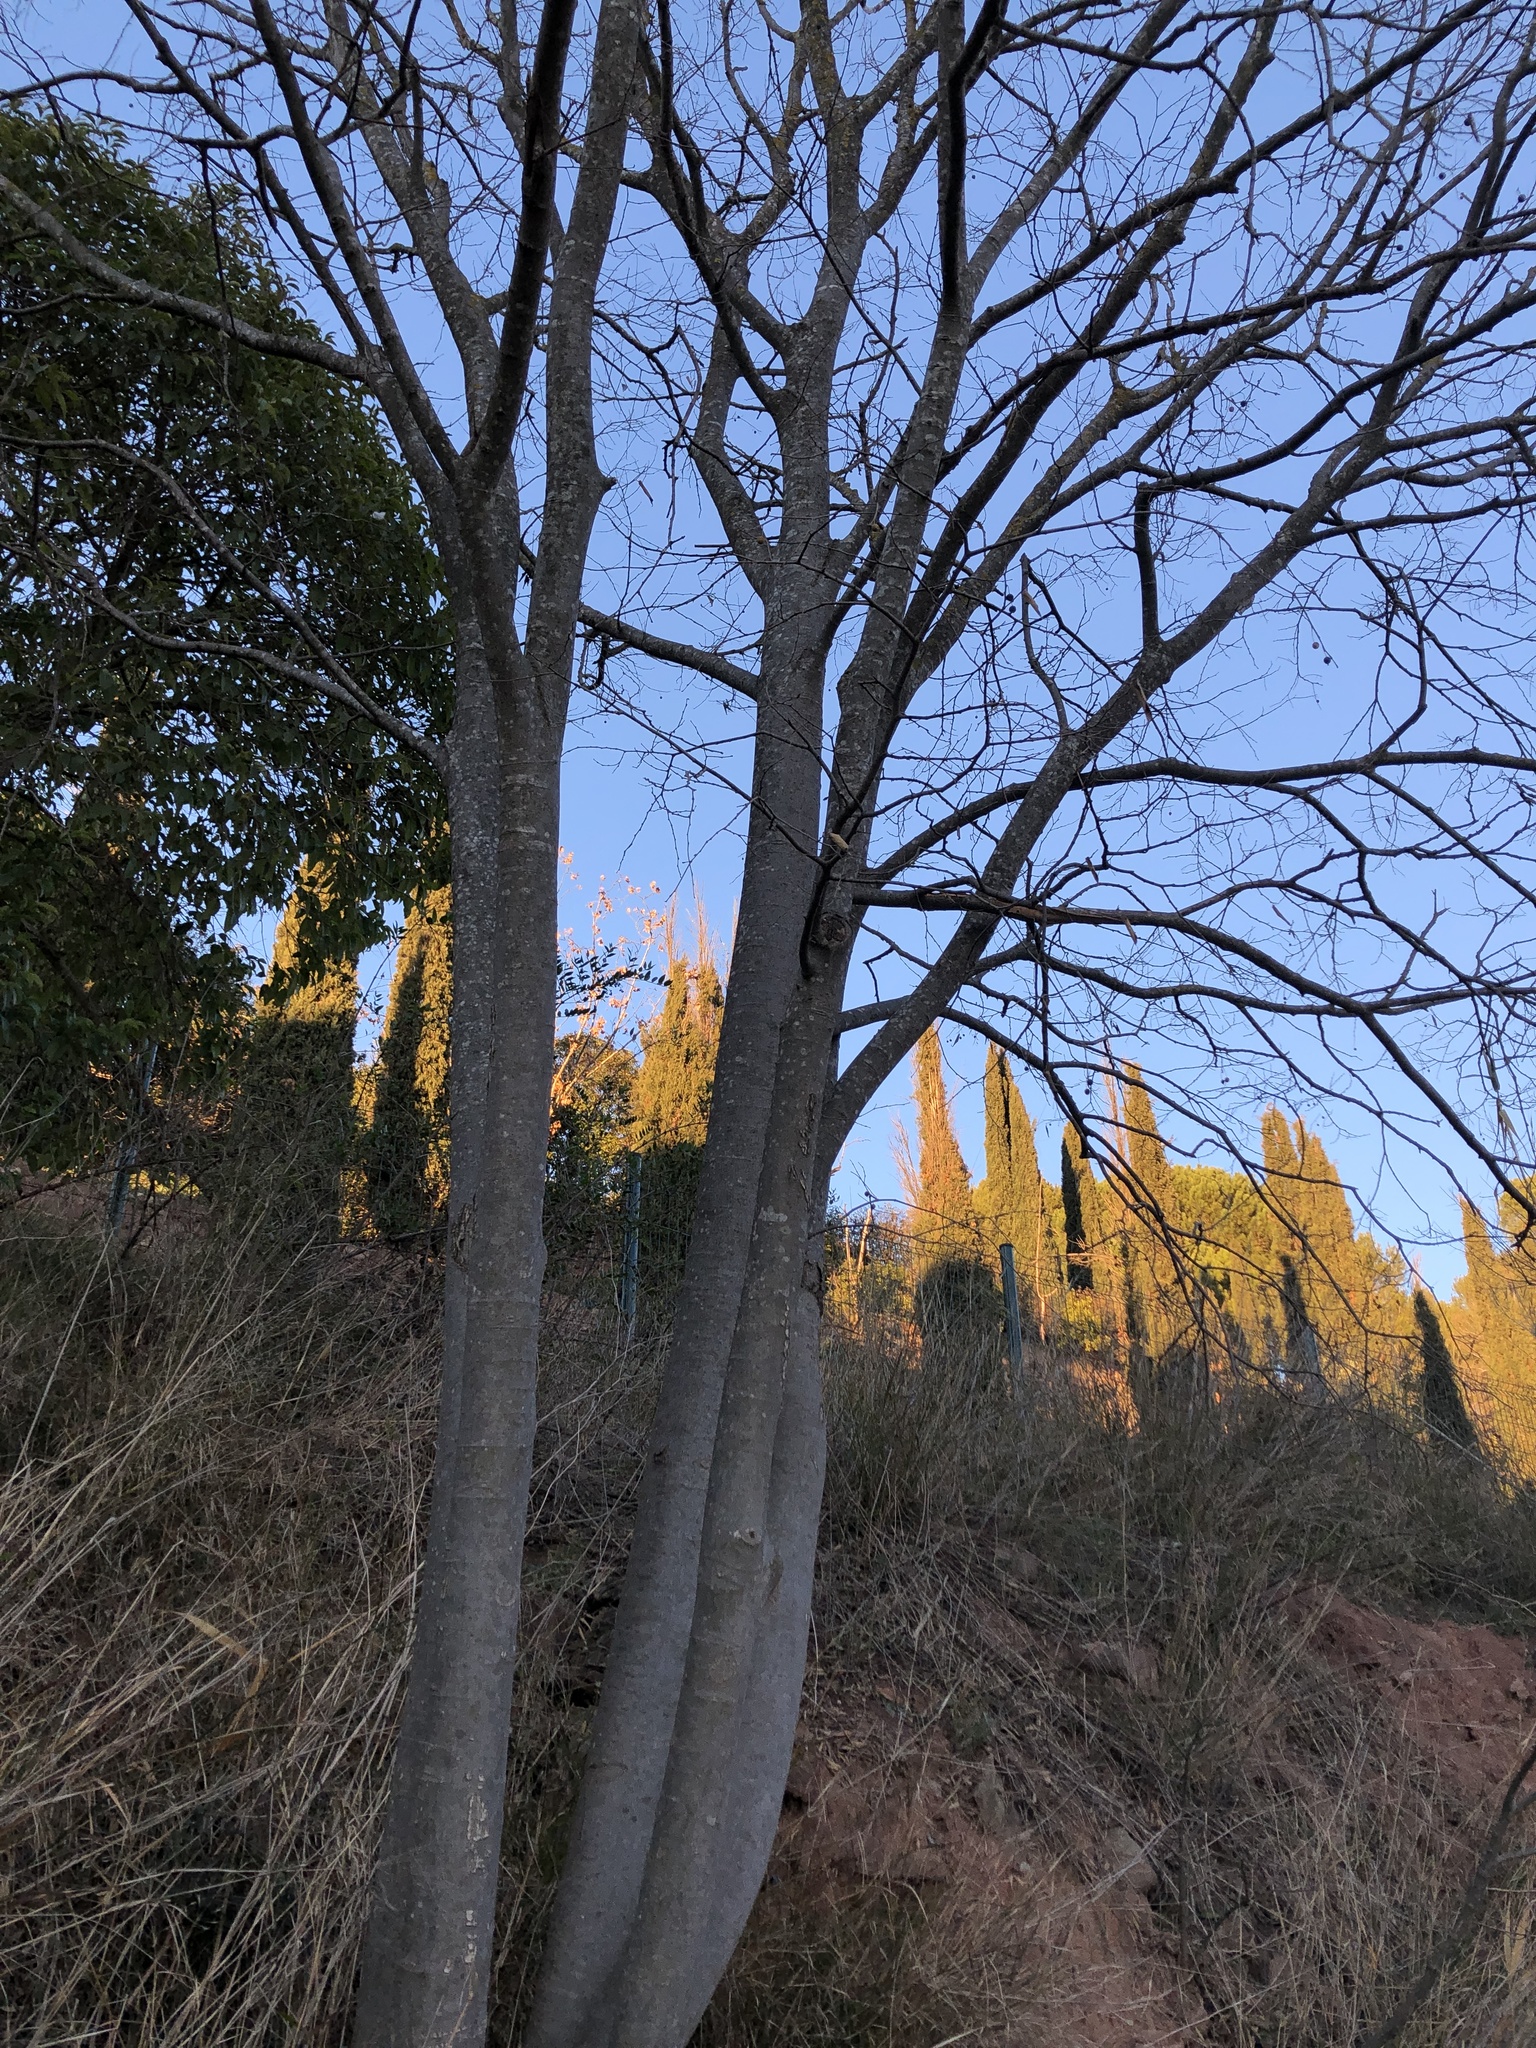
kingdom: Plantae
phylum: Tracheophyta
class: Magnoliopsida
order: Rosales
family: Cannabaceae
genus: Celtis
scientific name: Celtis australis
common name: European hackberry
